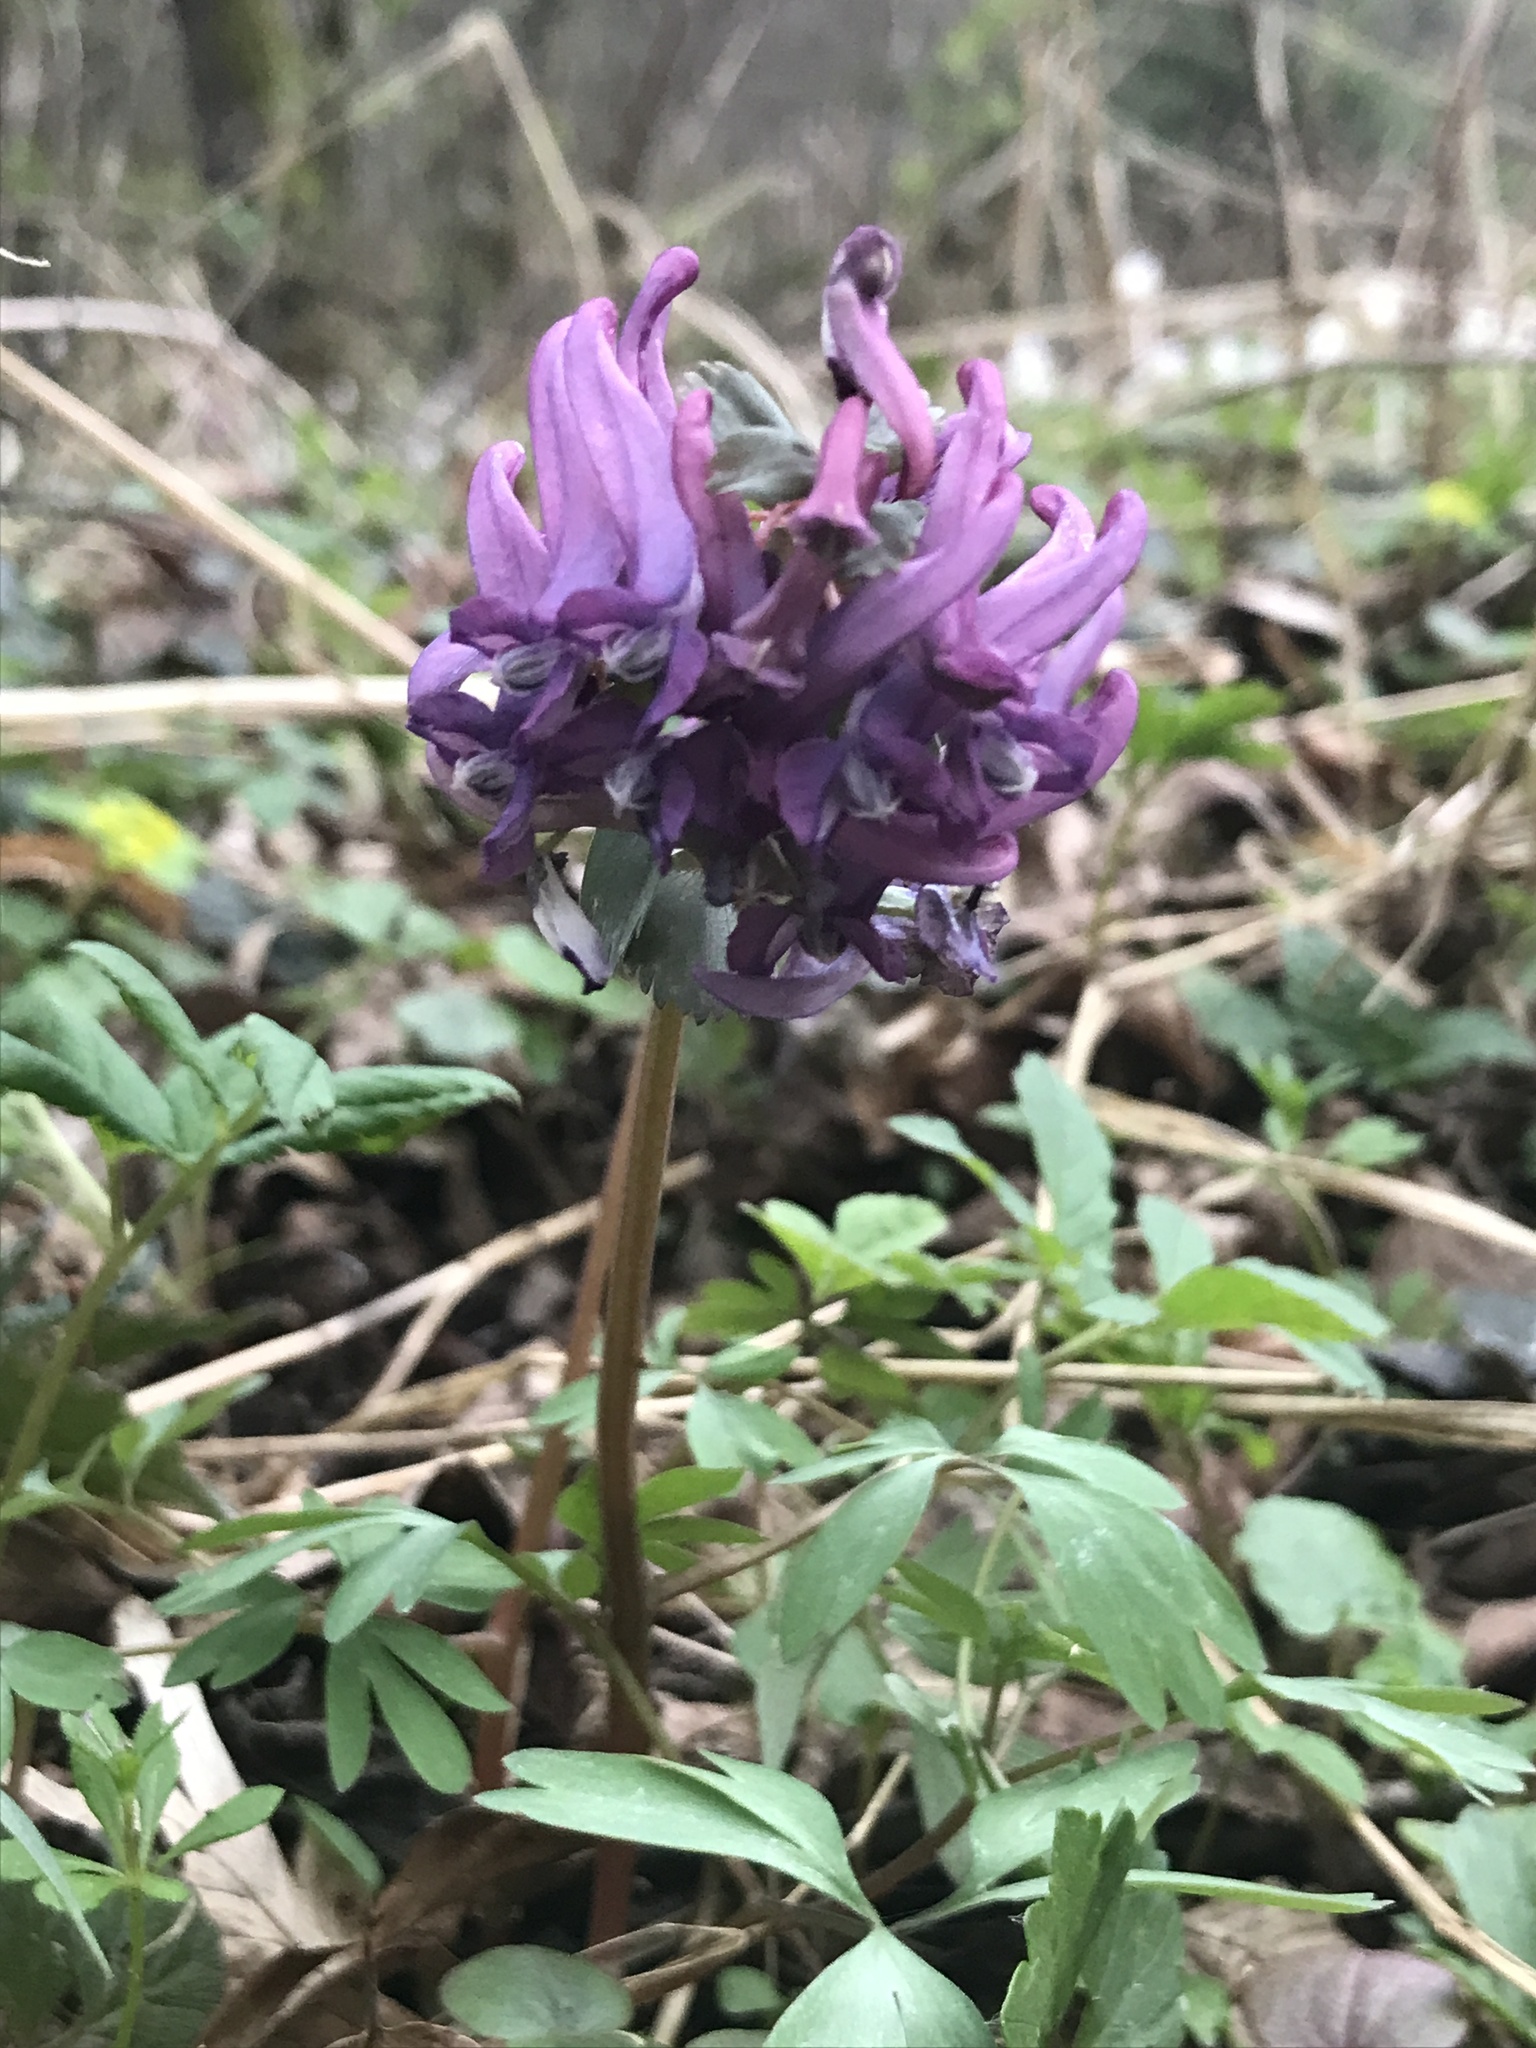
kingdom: Plantae
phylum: Tracheophyta
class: Magnoliopsida
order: Ranunculales
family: Papaveraceae
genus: Corydalis
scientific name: Corydalis solida
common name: Bird-in-a-bush
